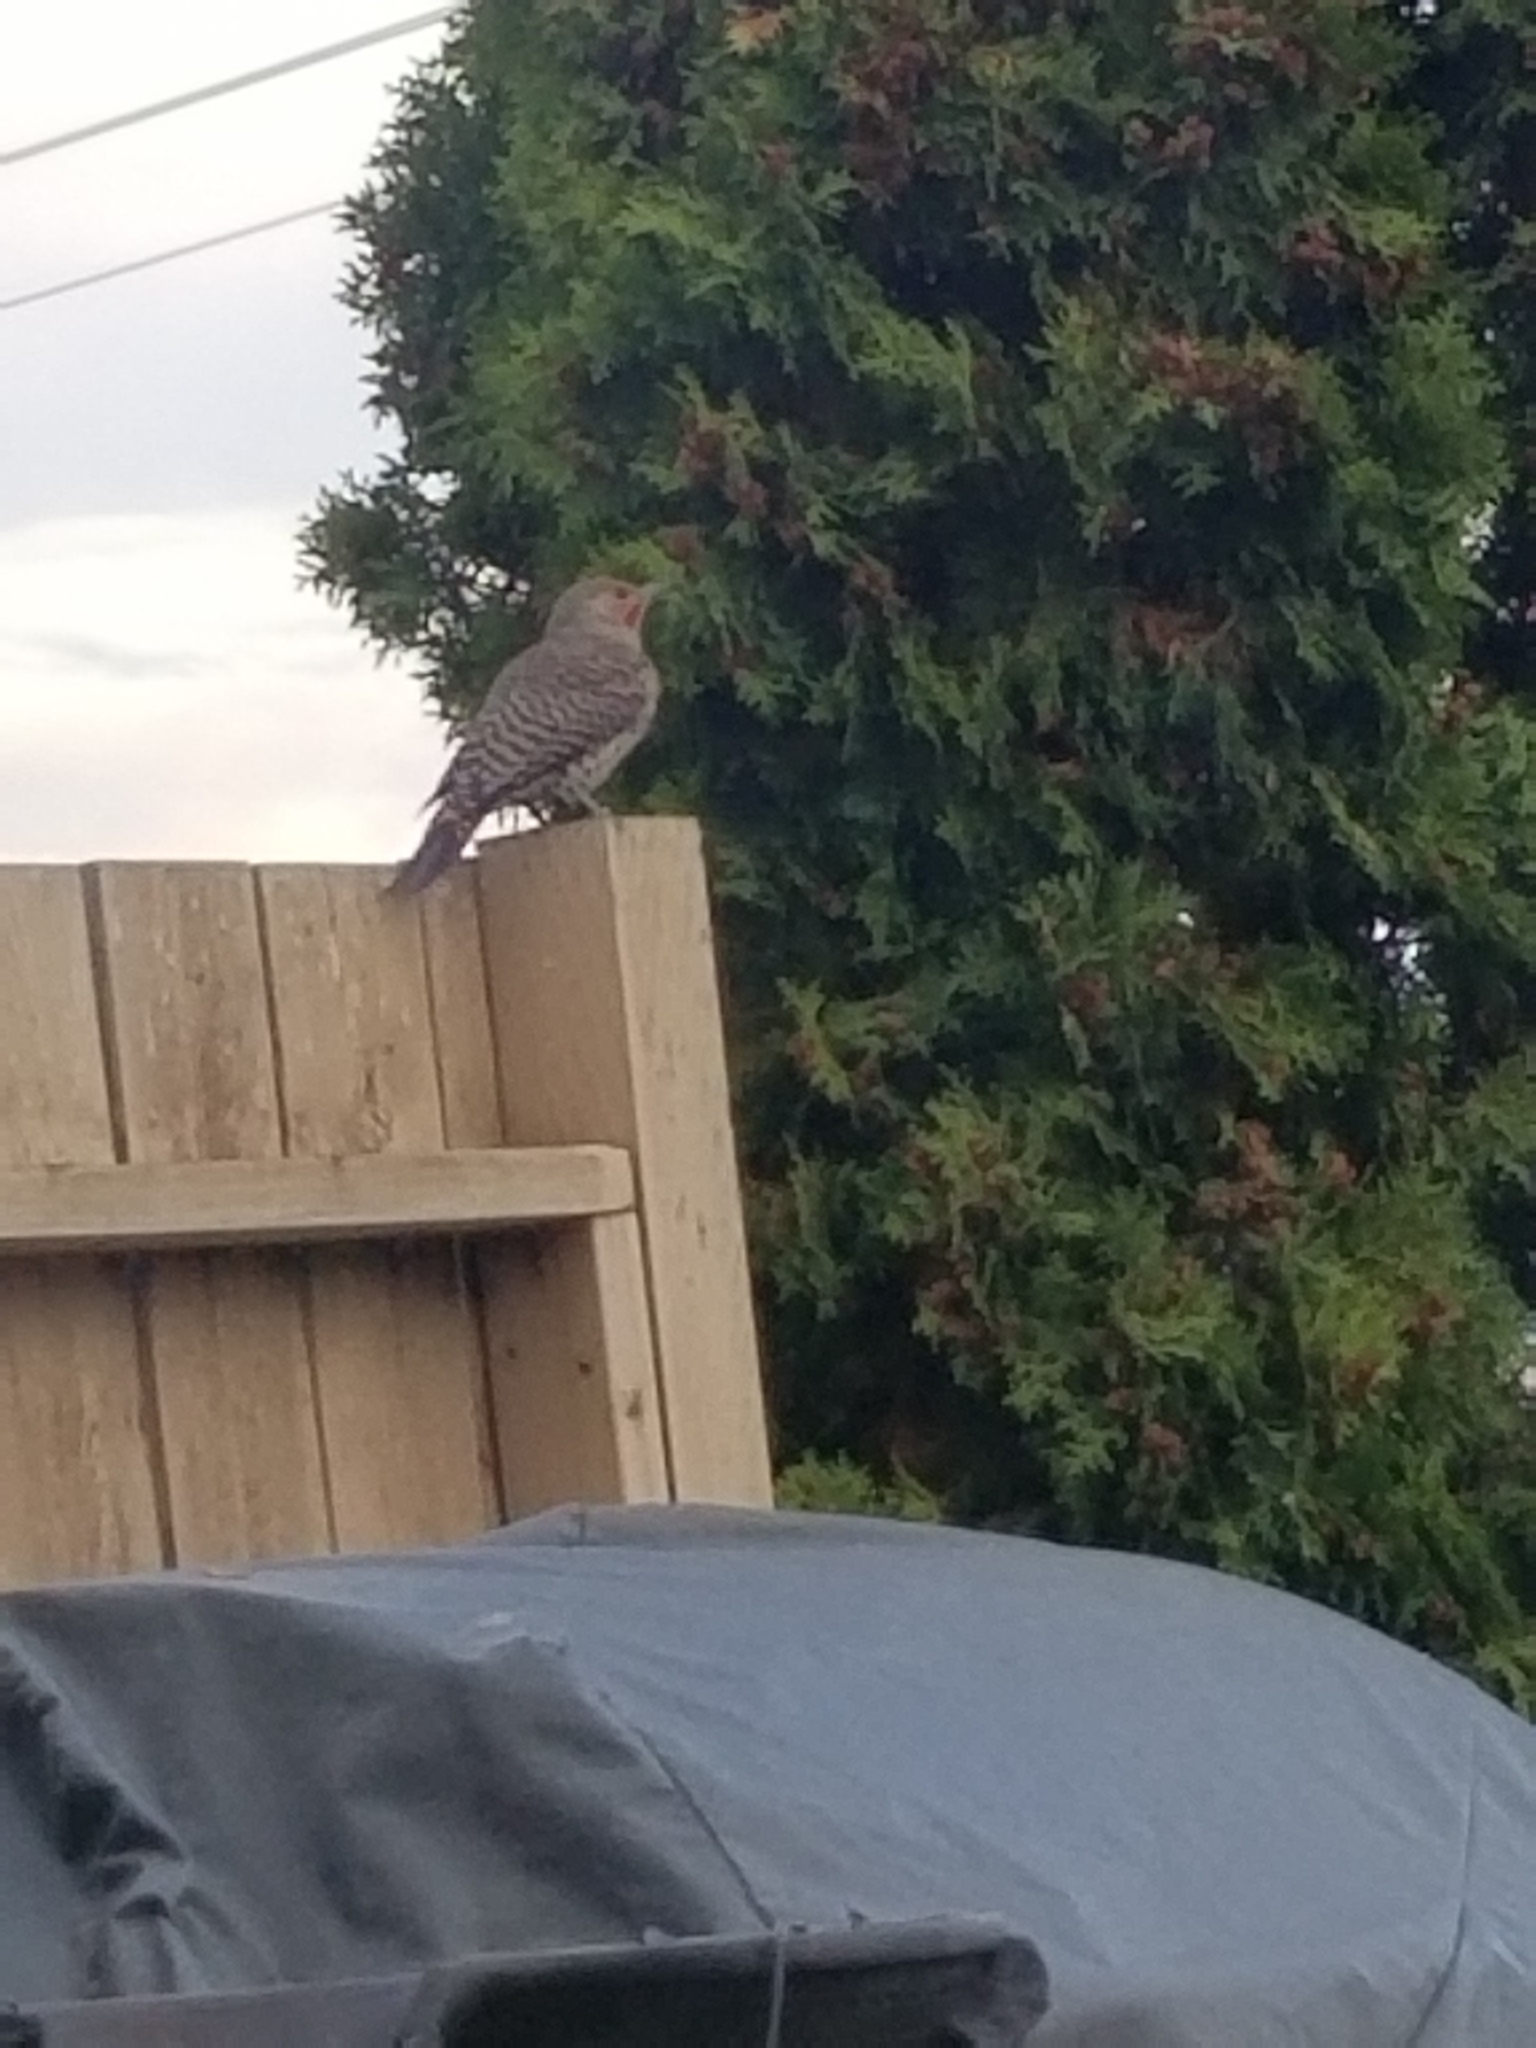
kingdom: Animalia
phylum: Chordata
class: Aves
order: Piciformes
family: Picidae
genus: Colaptes
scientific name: Colaptes auratus
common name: Northern flicker
